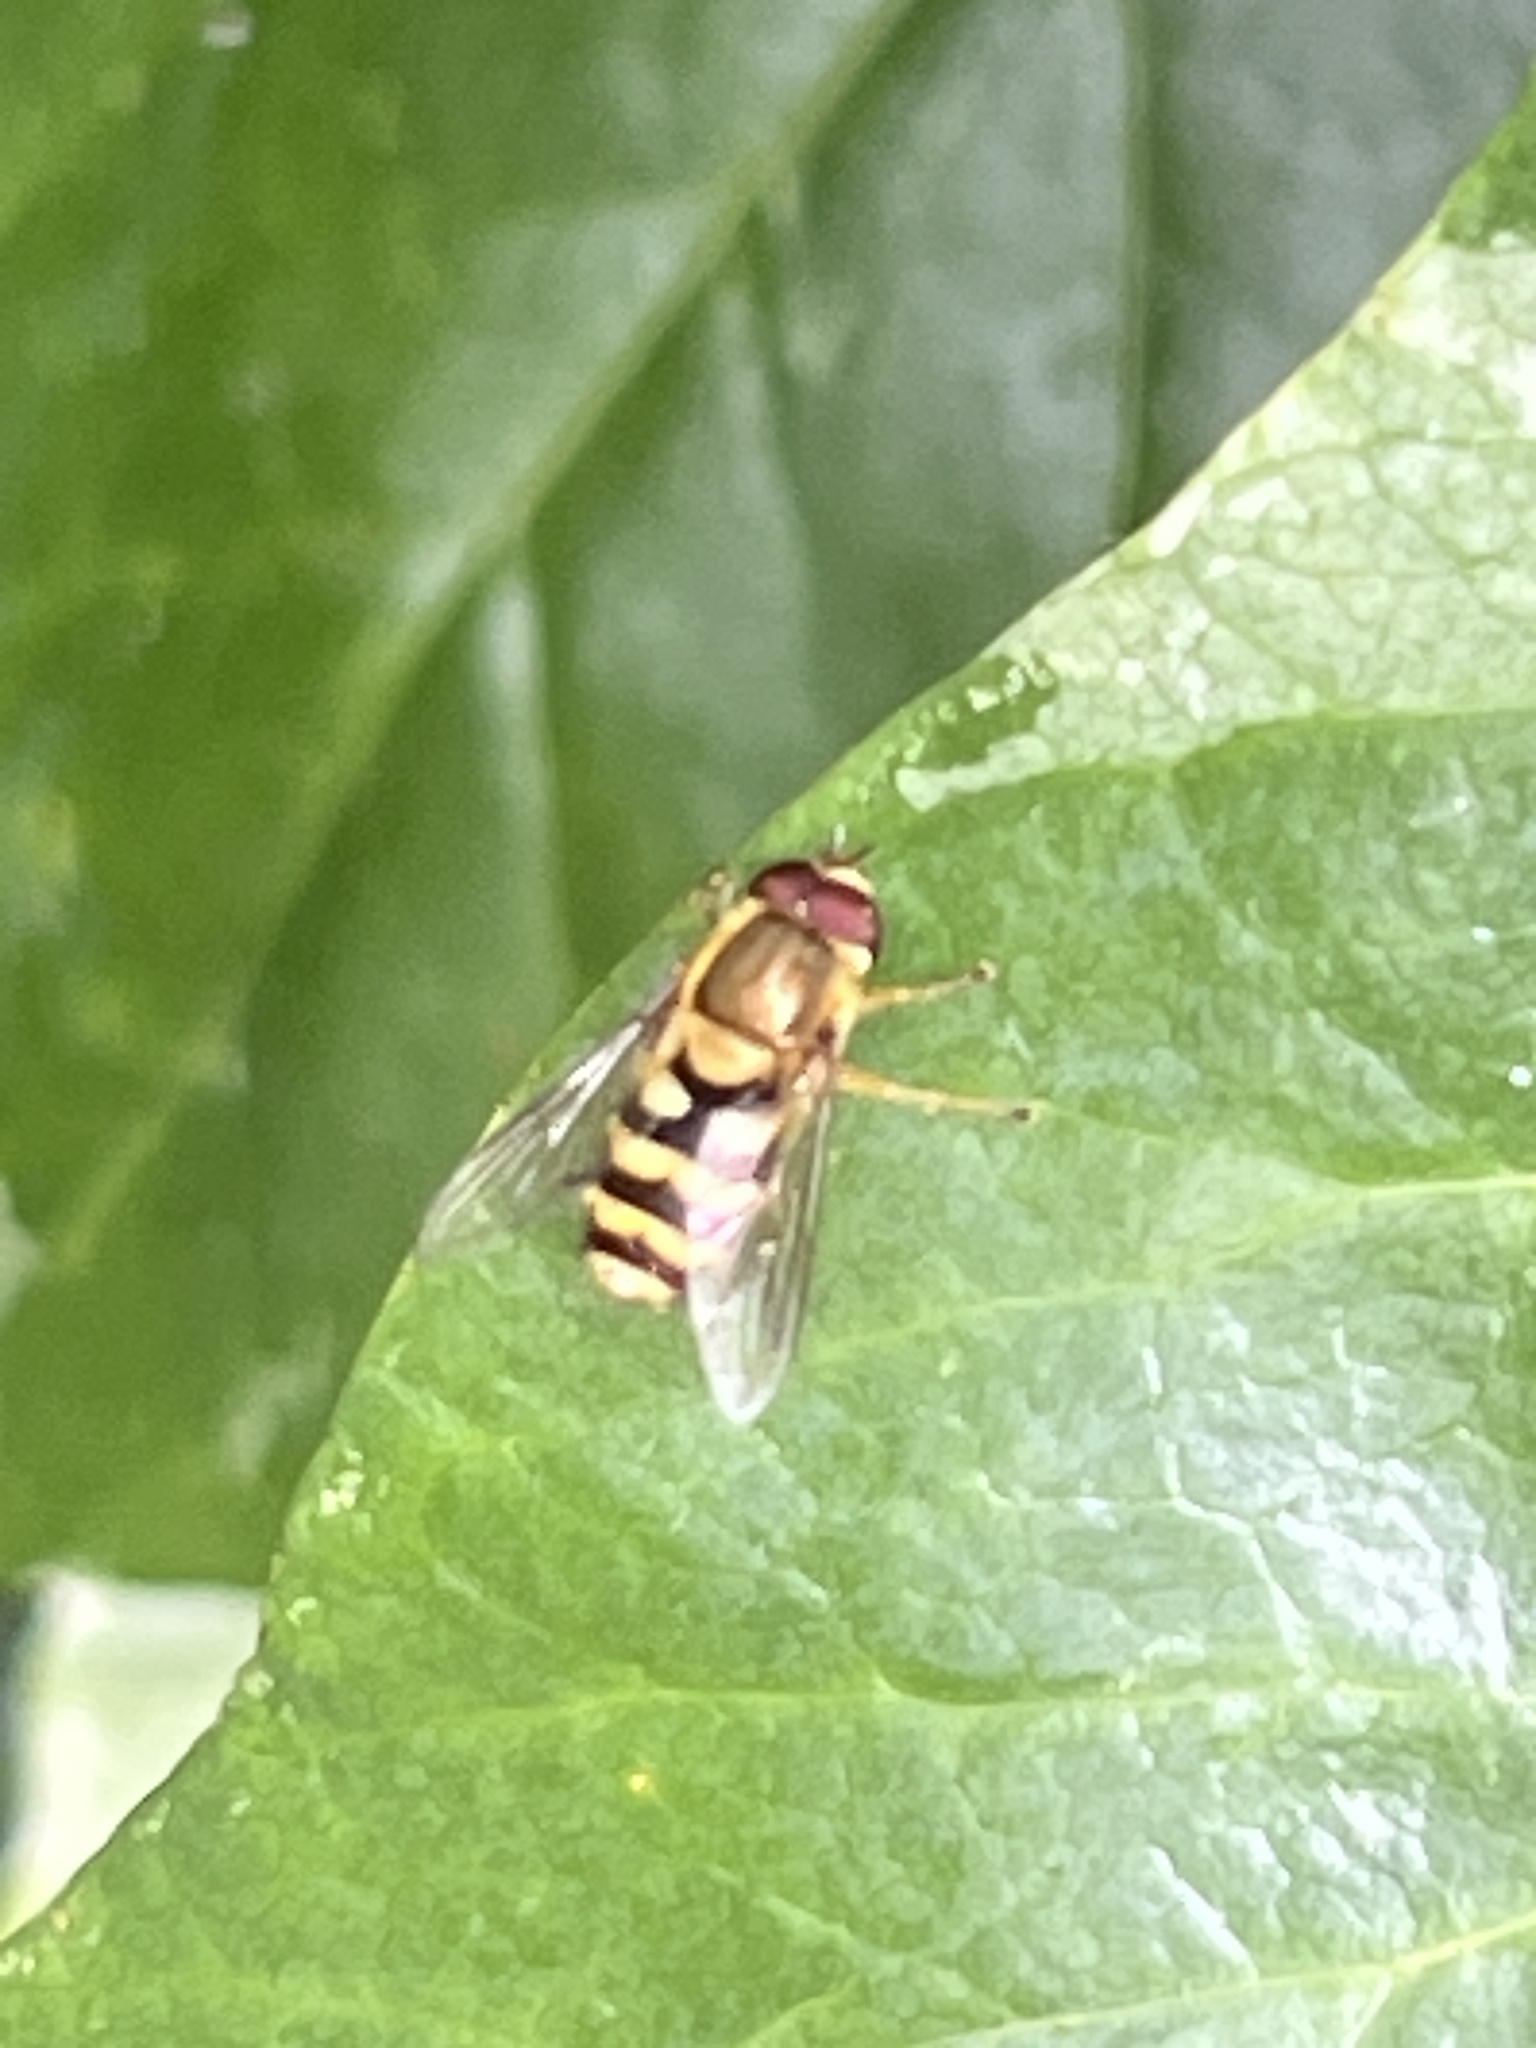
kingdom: Animalia
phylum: Arthropoda
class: Insecta
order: Diptera
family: Syrphidae
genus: Syrphus
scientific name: Syrphus
